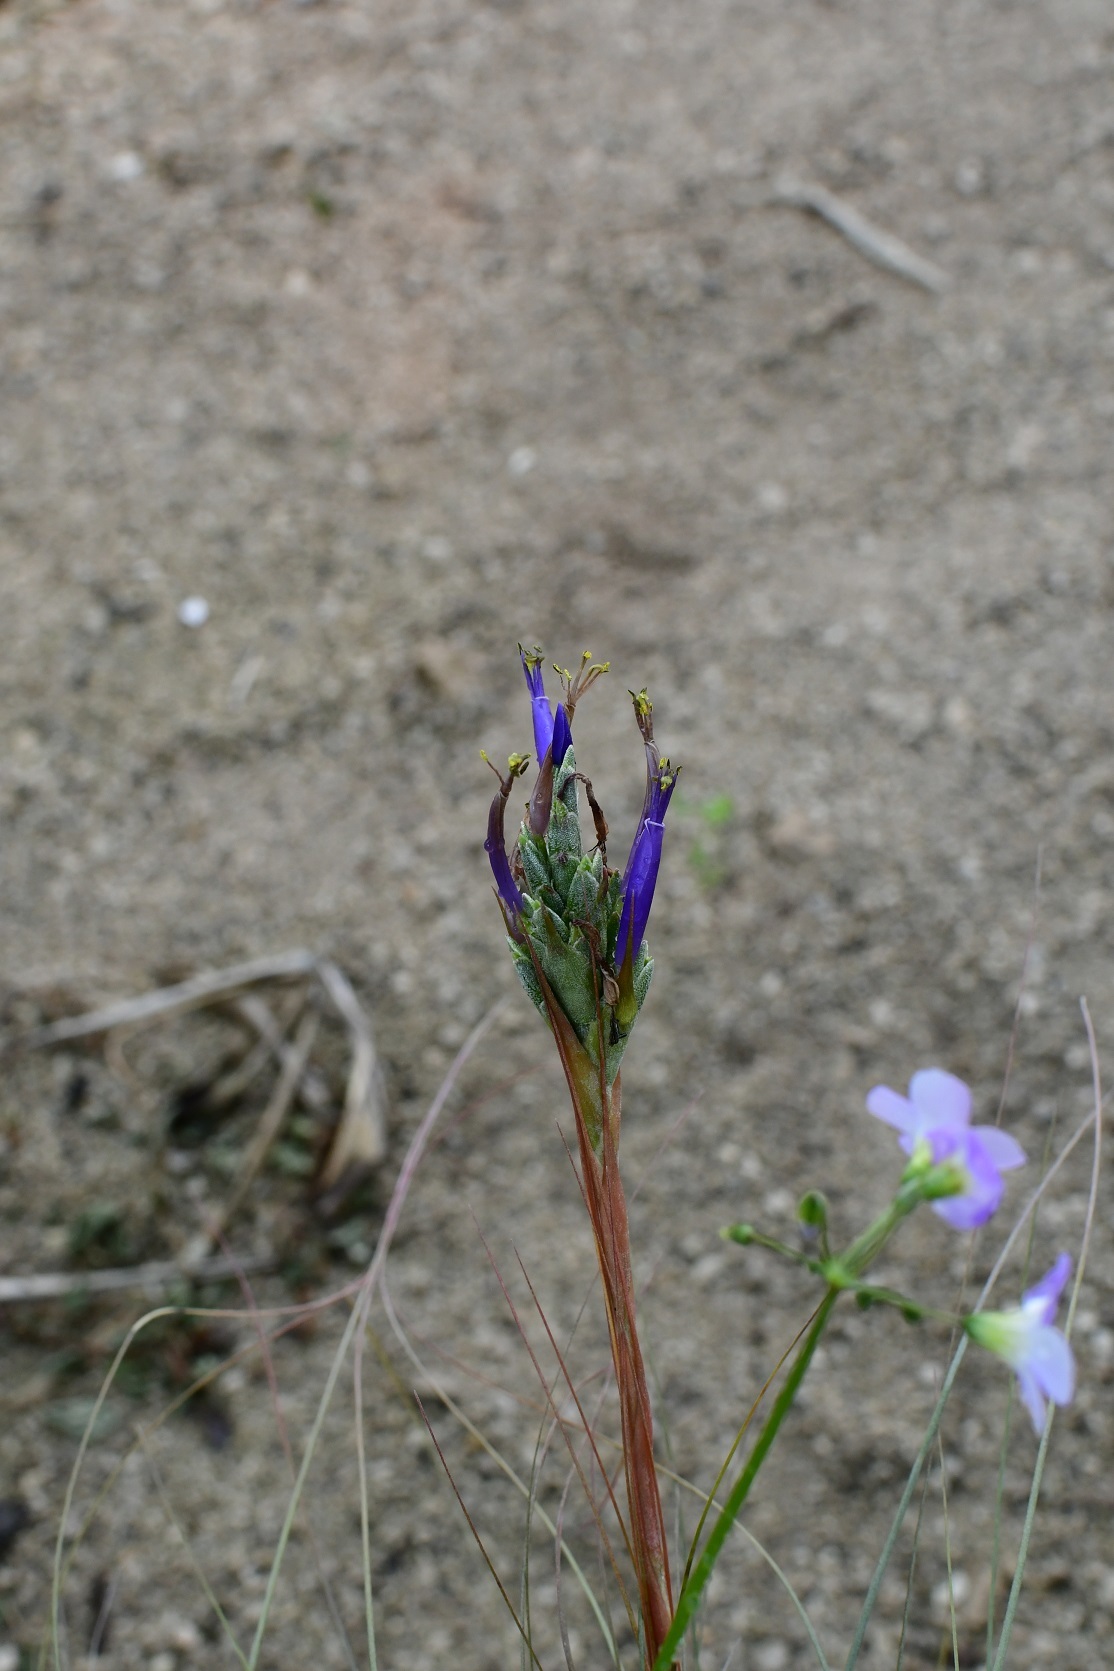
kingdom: Plantae
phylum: Tracheophyta
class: Liliopsida
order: Poales
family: Bromeliaceae
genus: Tillandsia
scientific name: Tillandsia juncea
